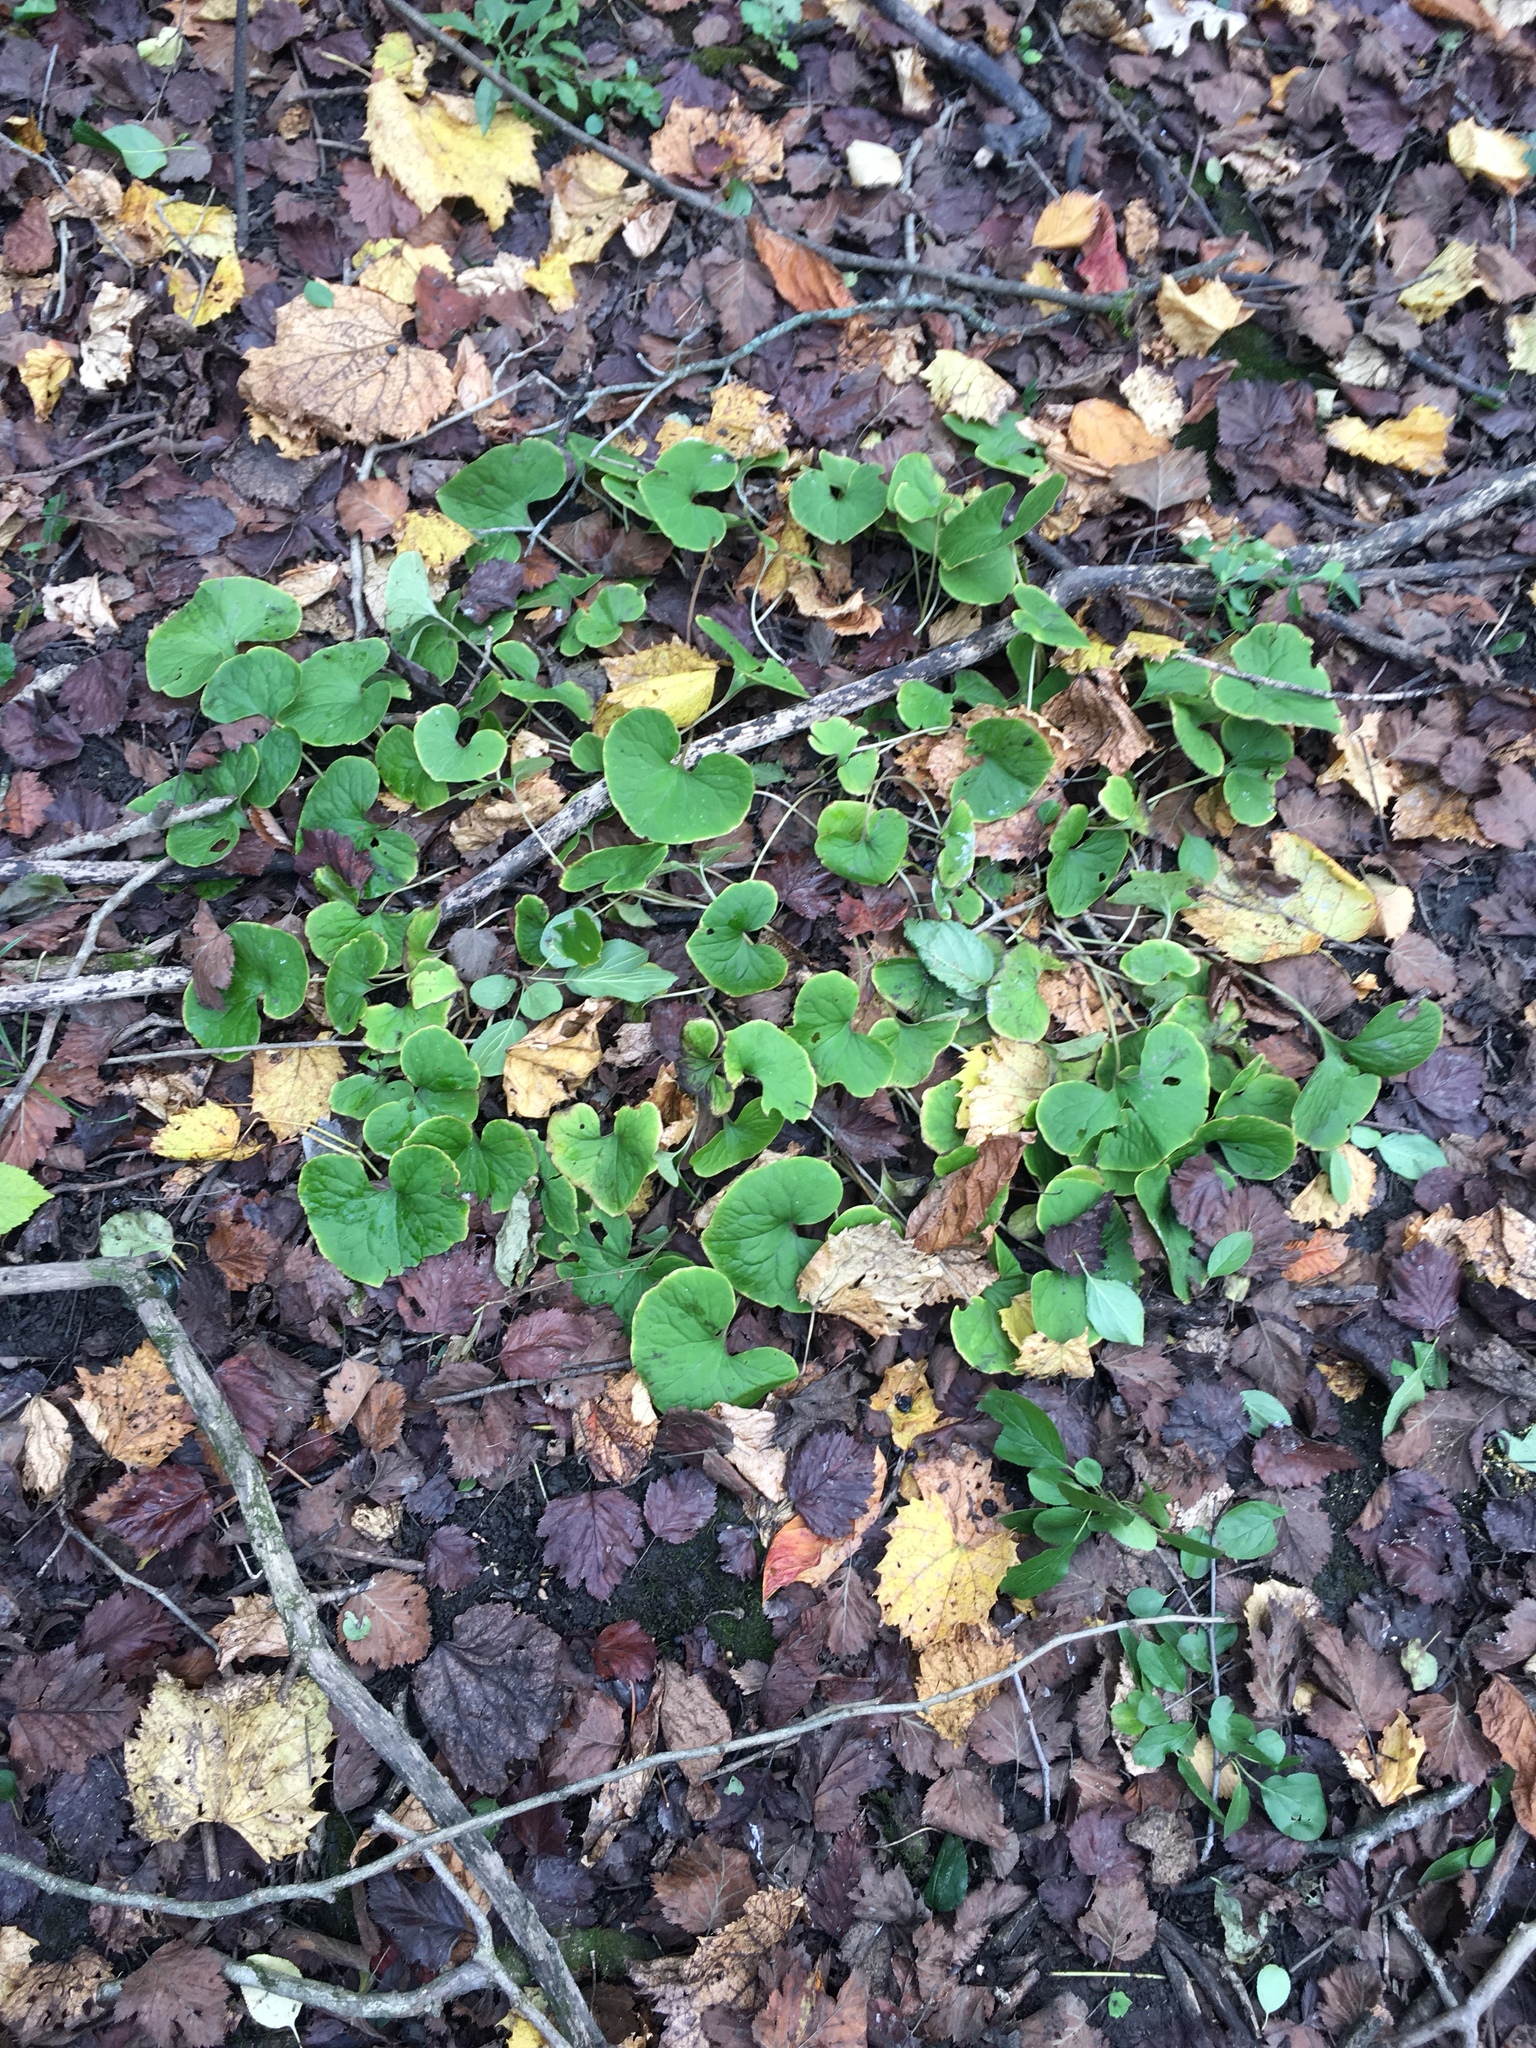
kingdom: Plantae
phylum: Tracheophyta
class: Magnoliopsida
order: Piperales
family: Aristolochiaceae
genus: Asarum
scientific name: Asarum canadense
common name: Wild ginger
